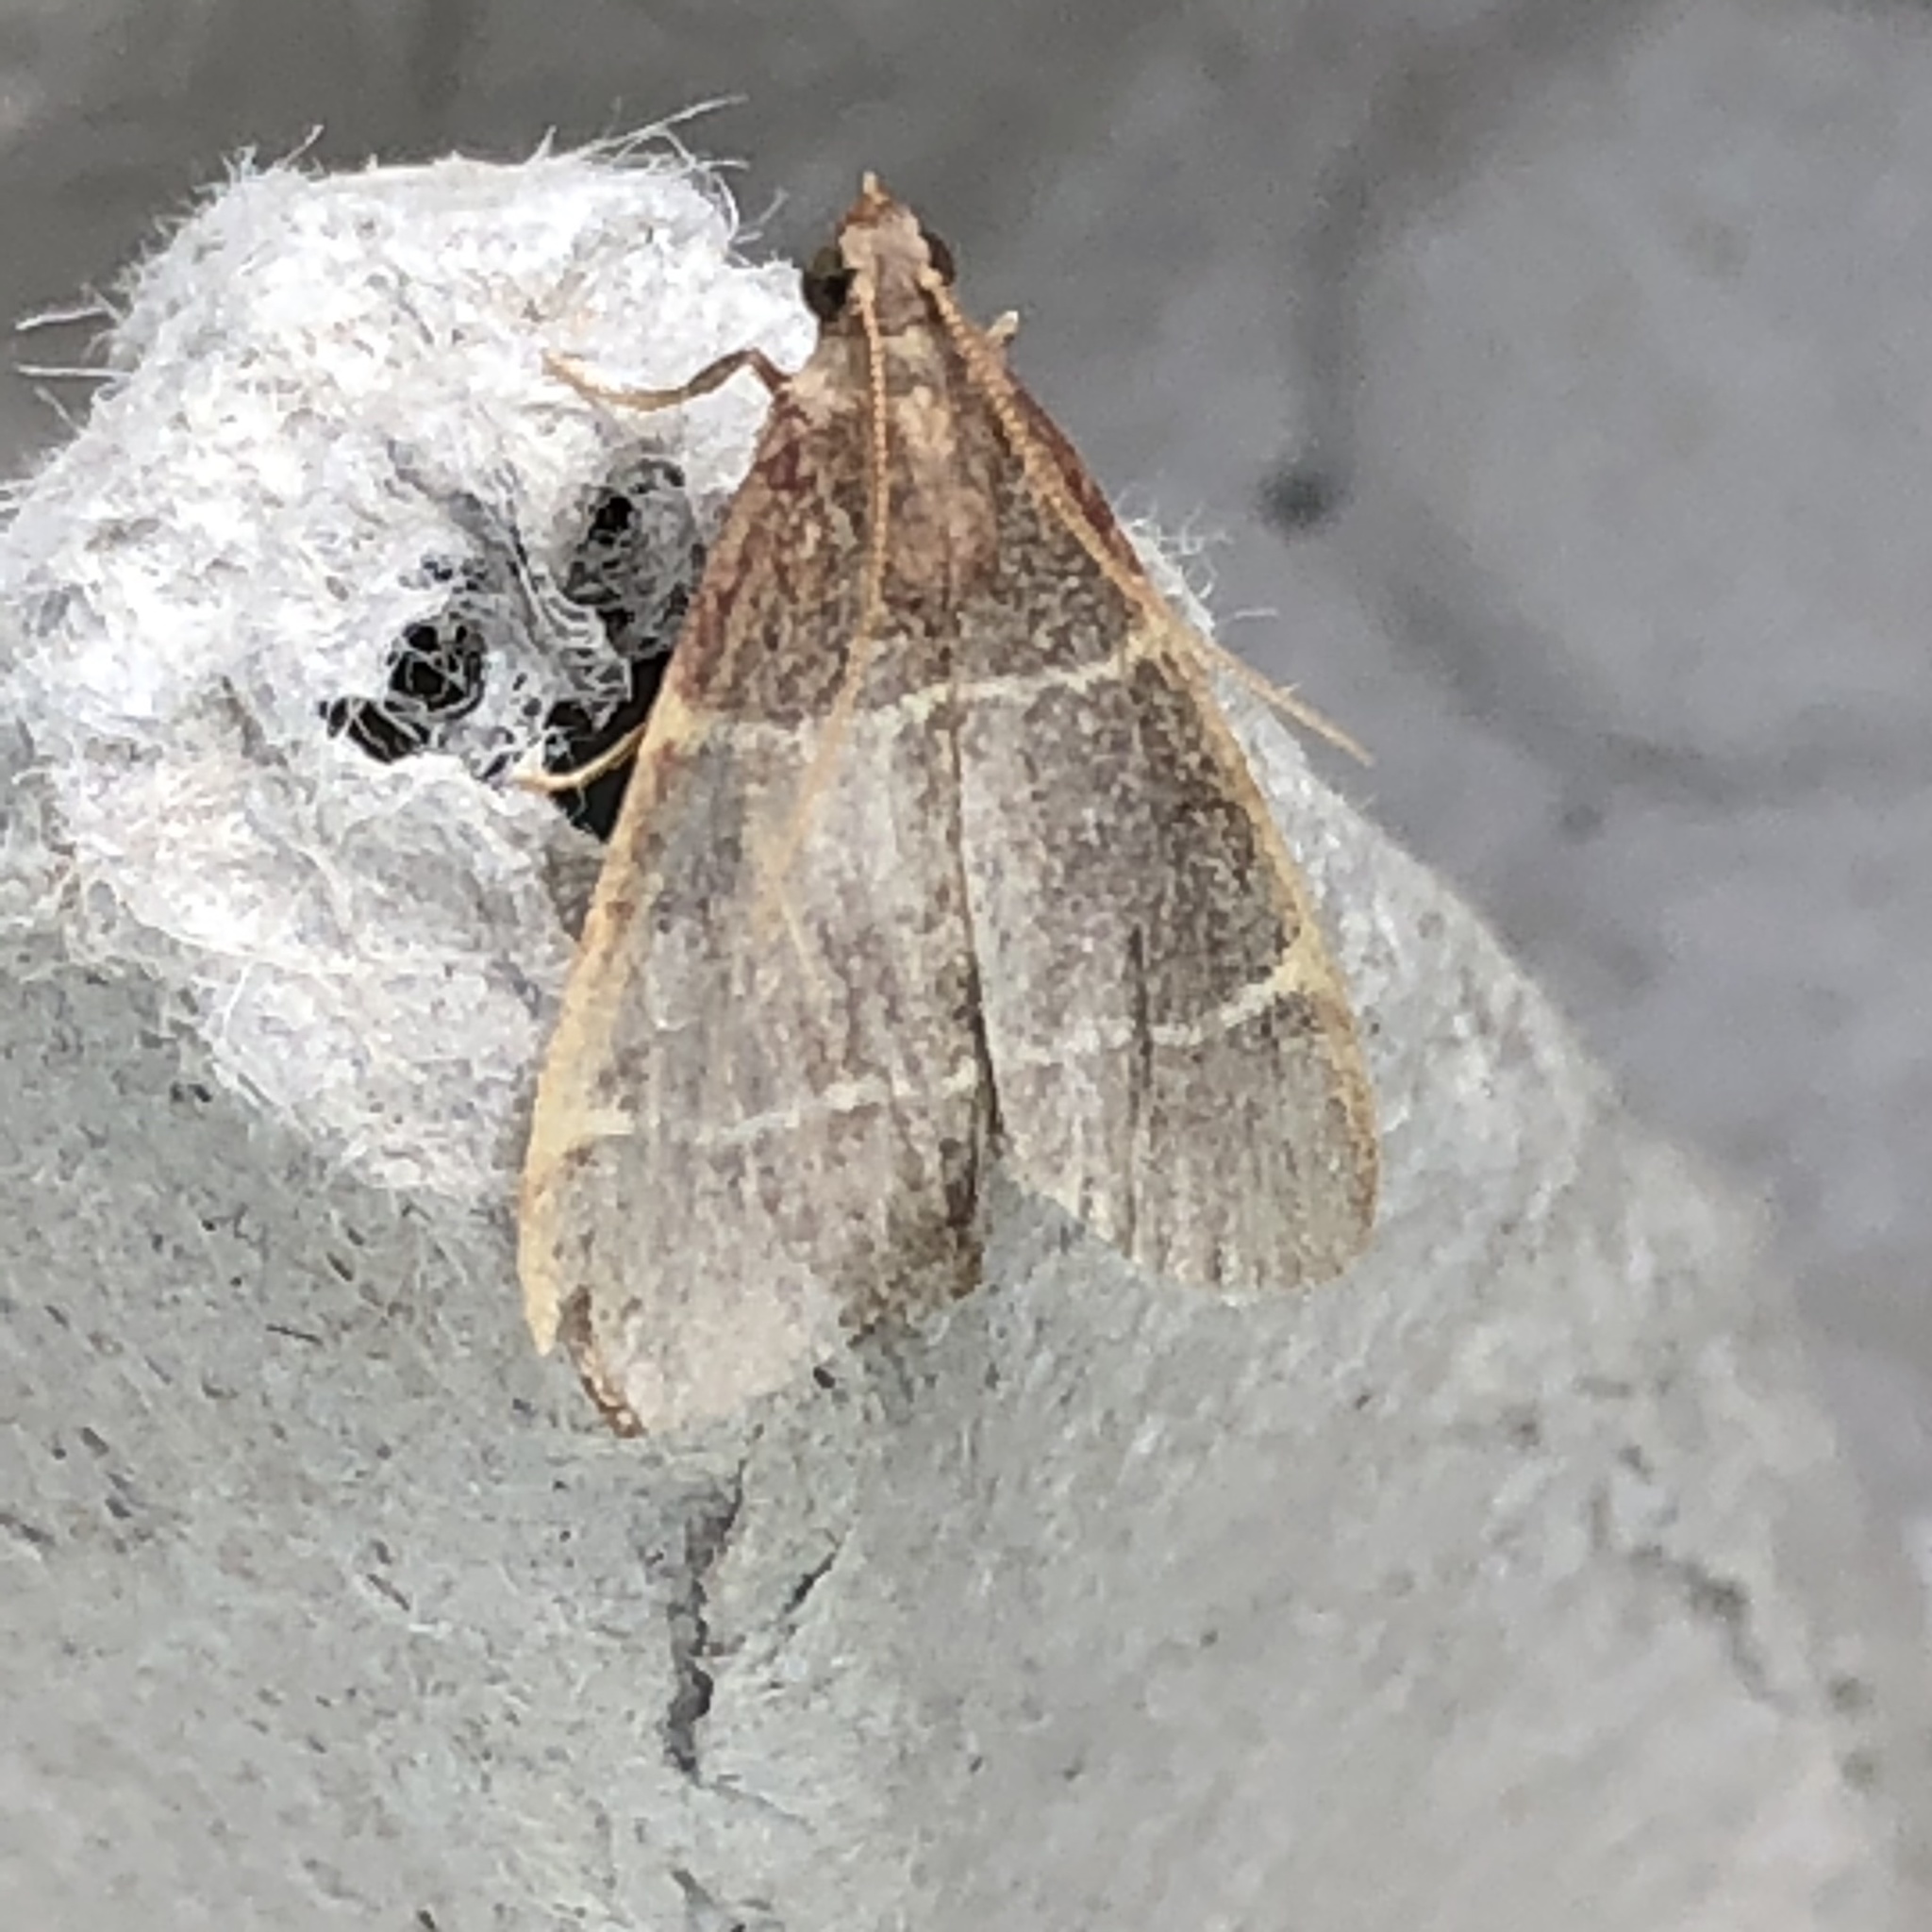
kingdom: Animalia
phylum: Arthropoda
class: Insecta
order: Lepidoptera
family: Pyralidae
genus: Hypsopygia
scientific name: Hypsopygia glaucinalis
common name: Double-striped tabby
